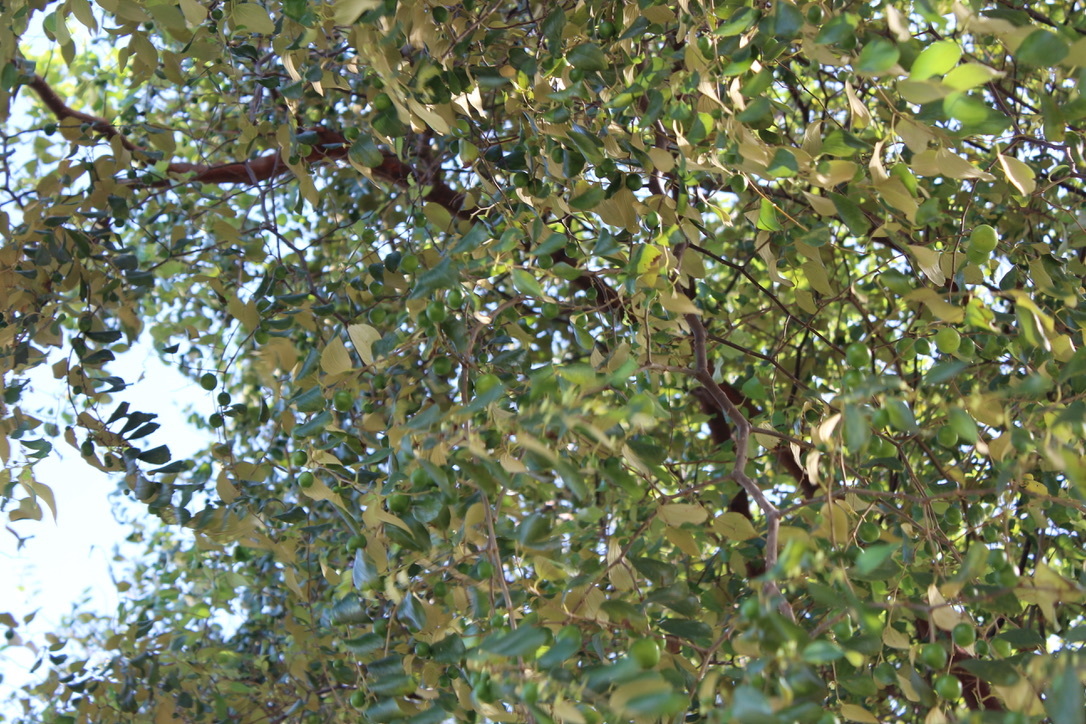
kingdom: Plantae
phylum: Tracheophyta
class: Magnoliopsida
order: Rosales
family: Rhamnaceae
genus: Ziziphus
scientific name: Ziziphus mauritiana
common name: Indian jujube
